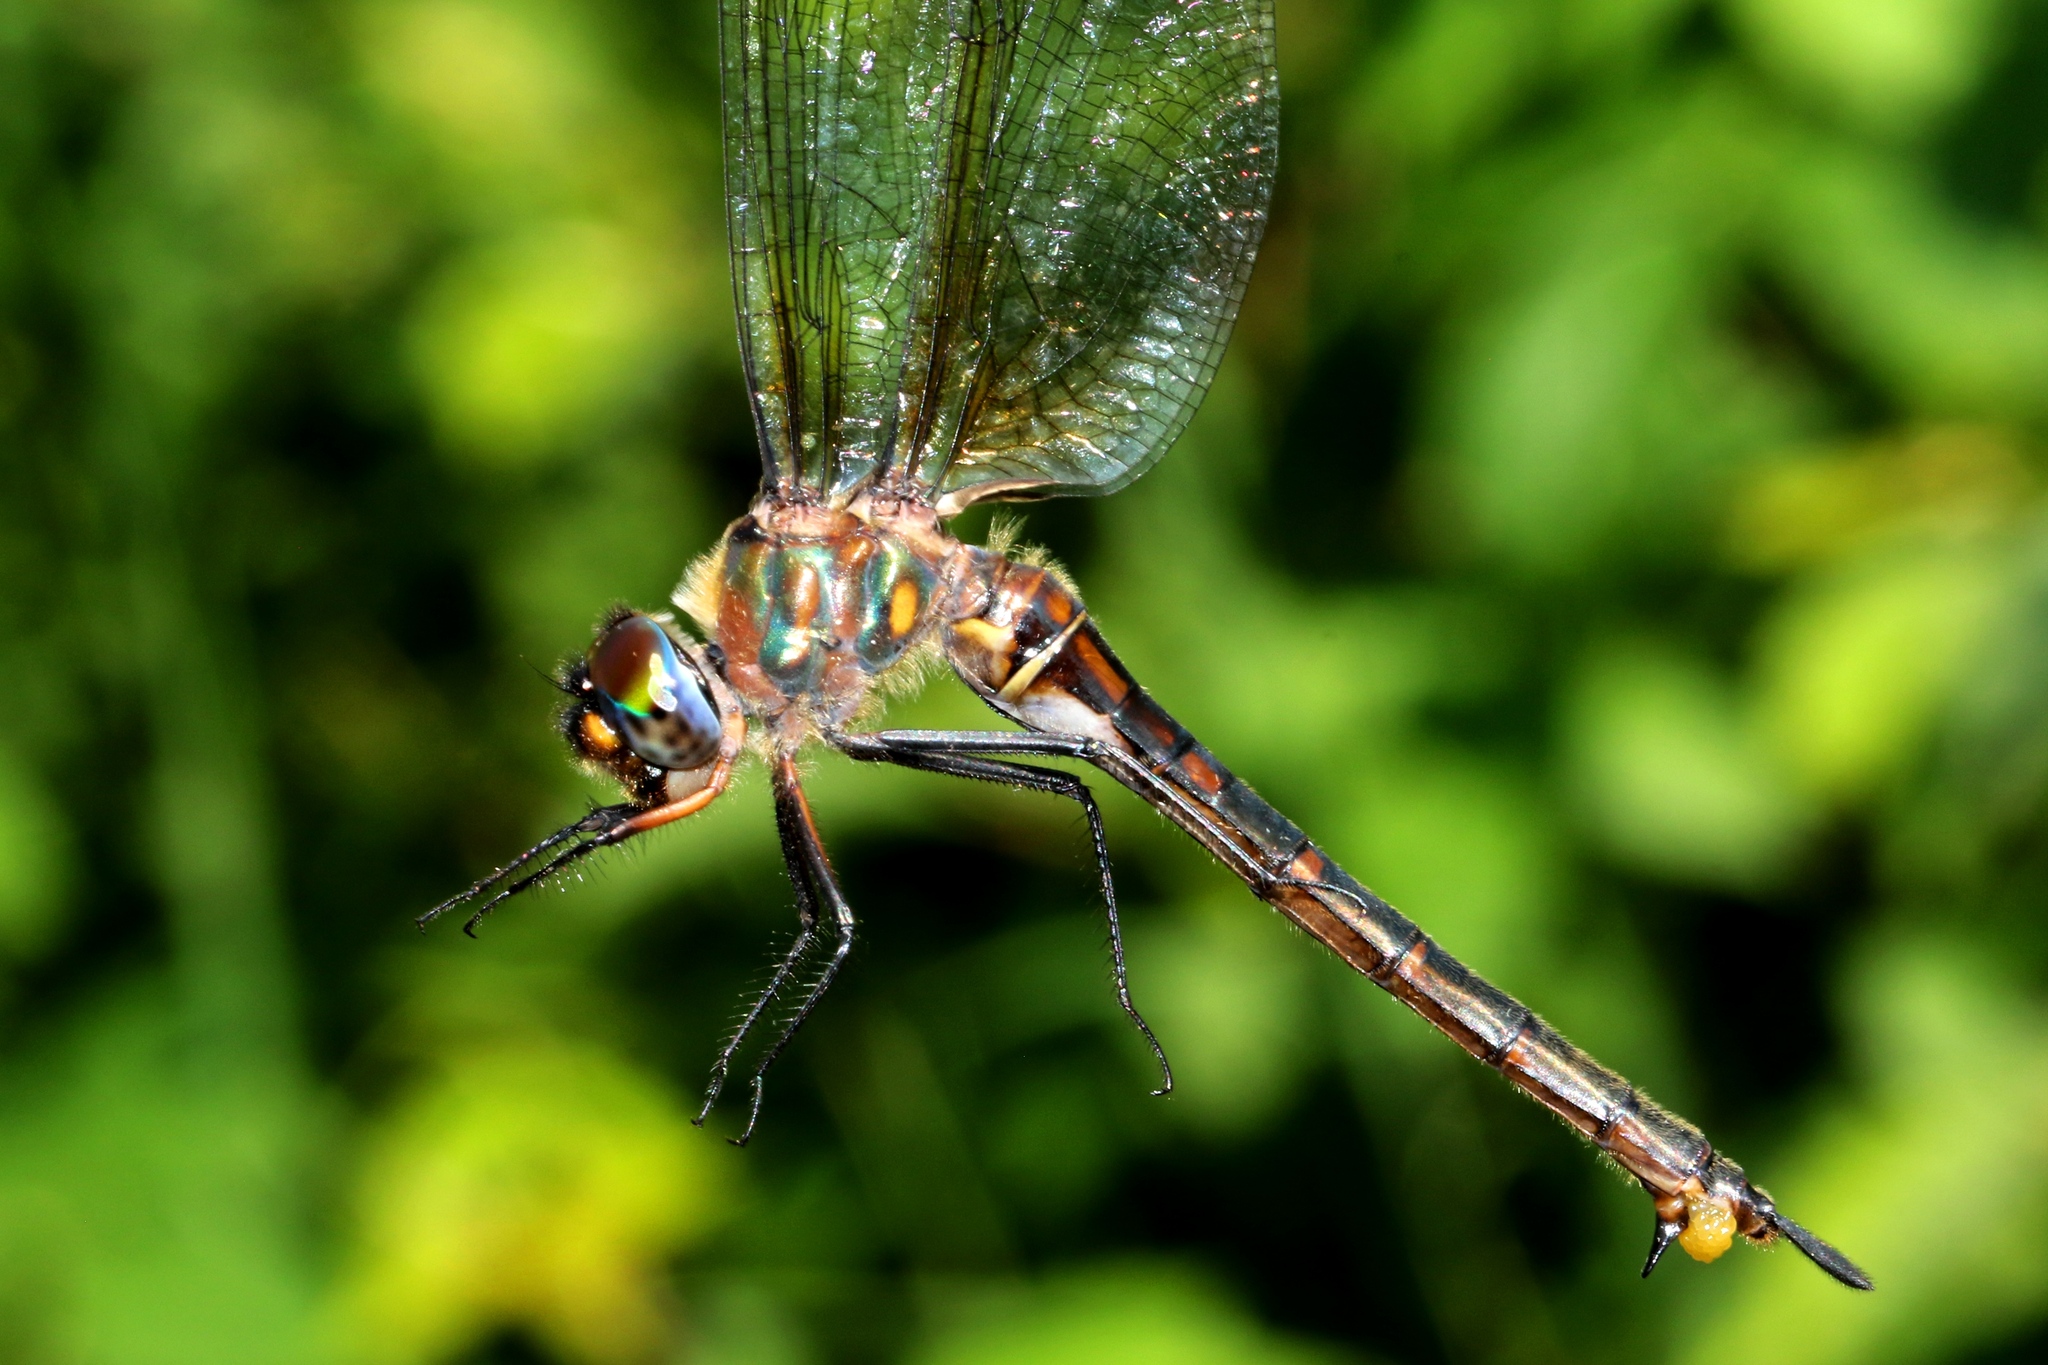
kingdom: Animalia
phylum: Arthropoda
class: Insecta
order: Odonata
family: Corduliidae
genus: Somatochlora
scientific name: Somatochlora williamsoni
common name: Williamson's emerald
